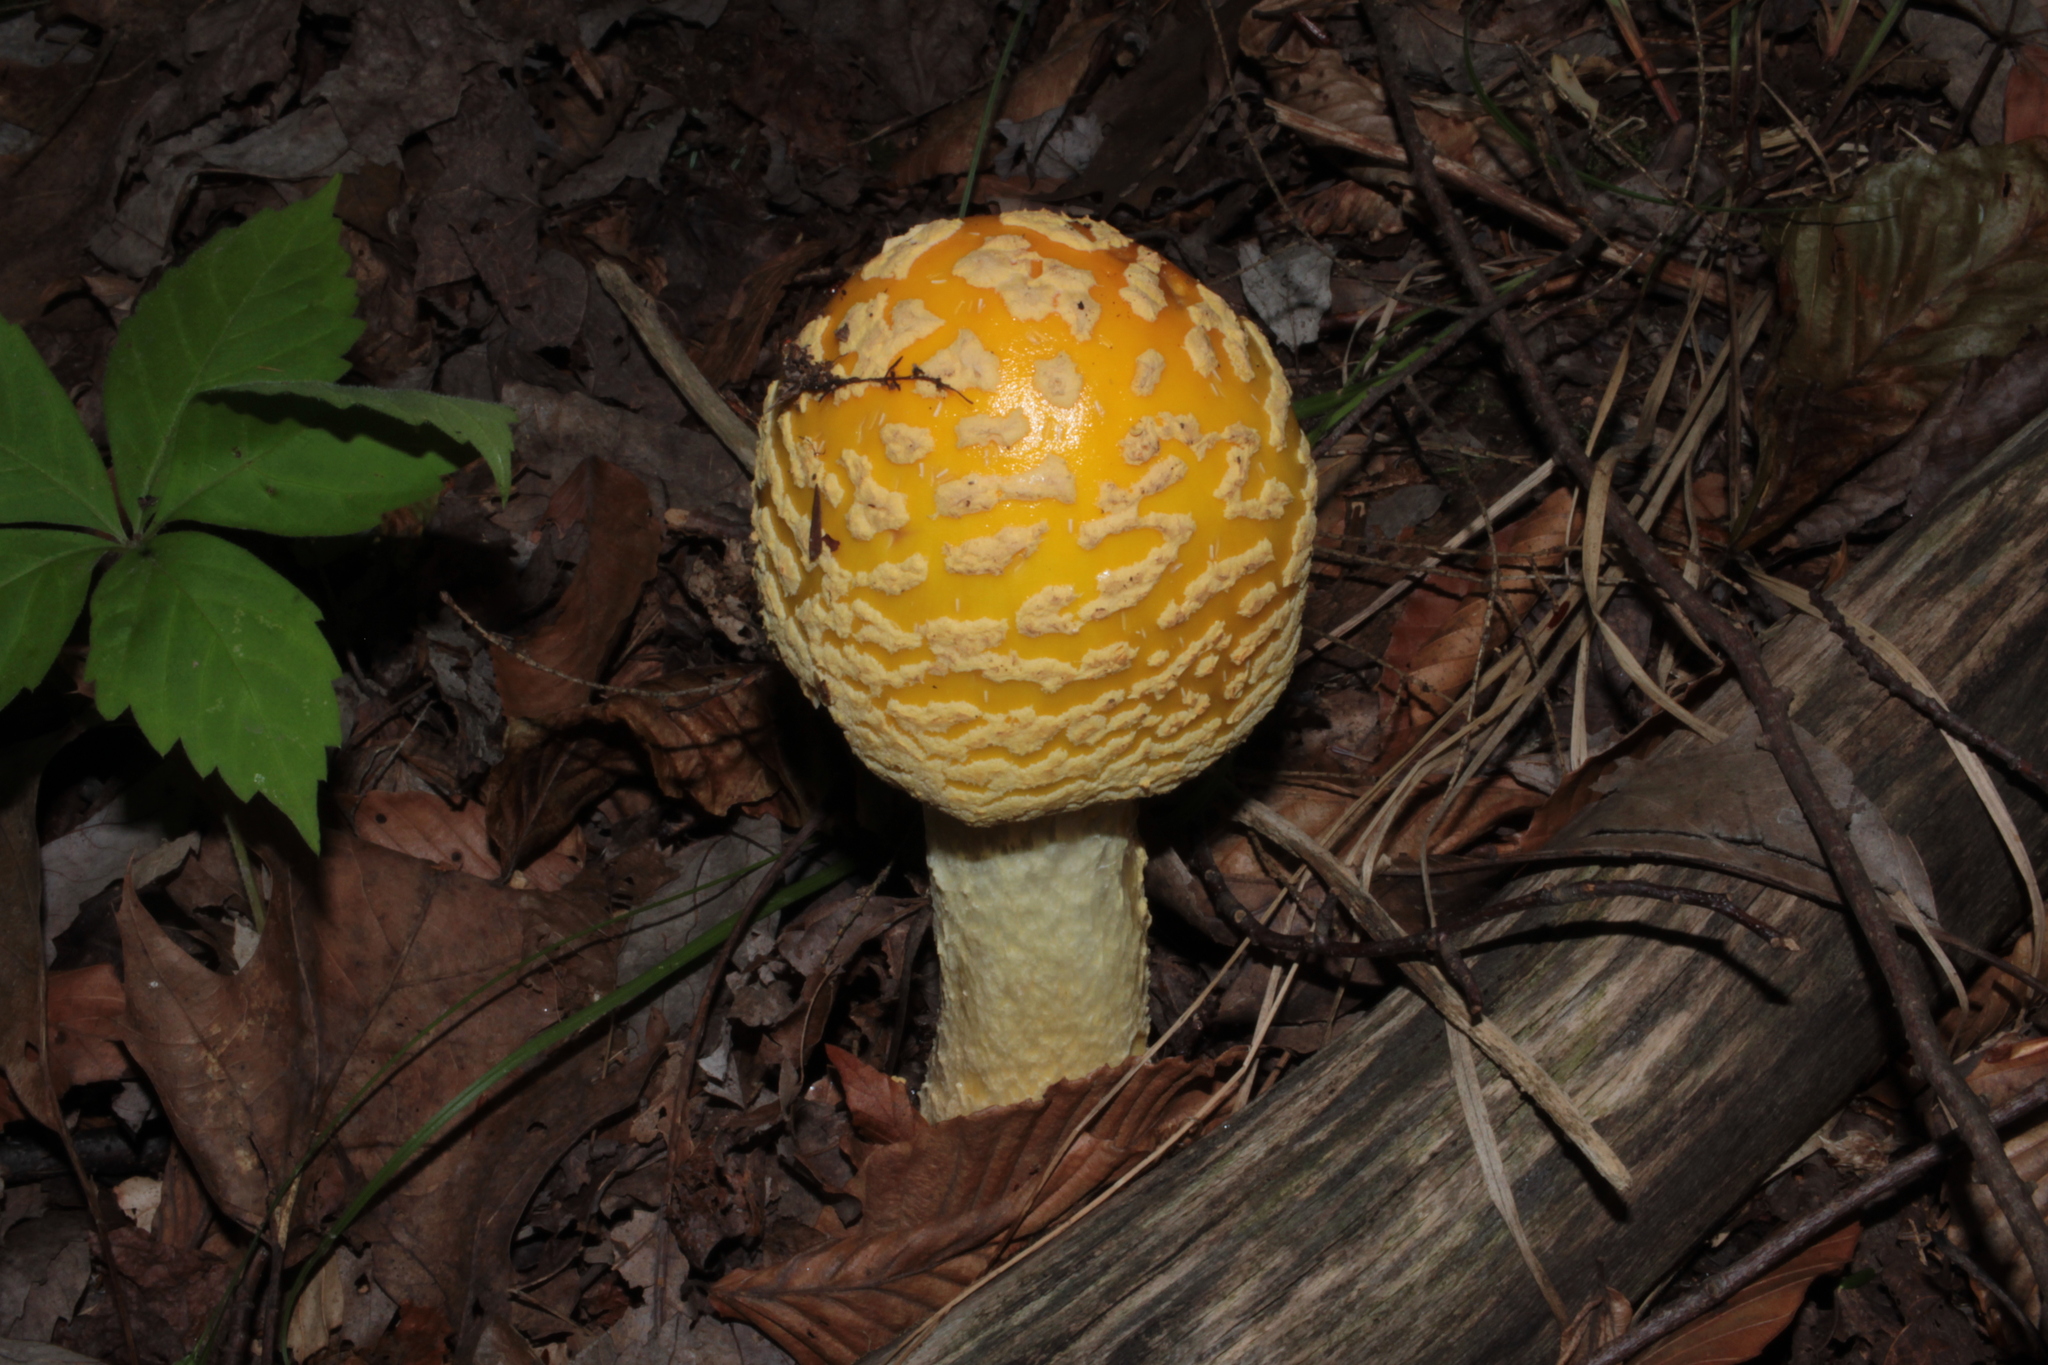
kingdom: Fungi
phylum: Basidiomycota
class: Agaricomycetes
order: Agaricales
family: Amanitaceae
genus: Amanita
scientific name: Amanita muscaria
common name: Fly agaric
